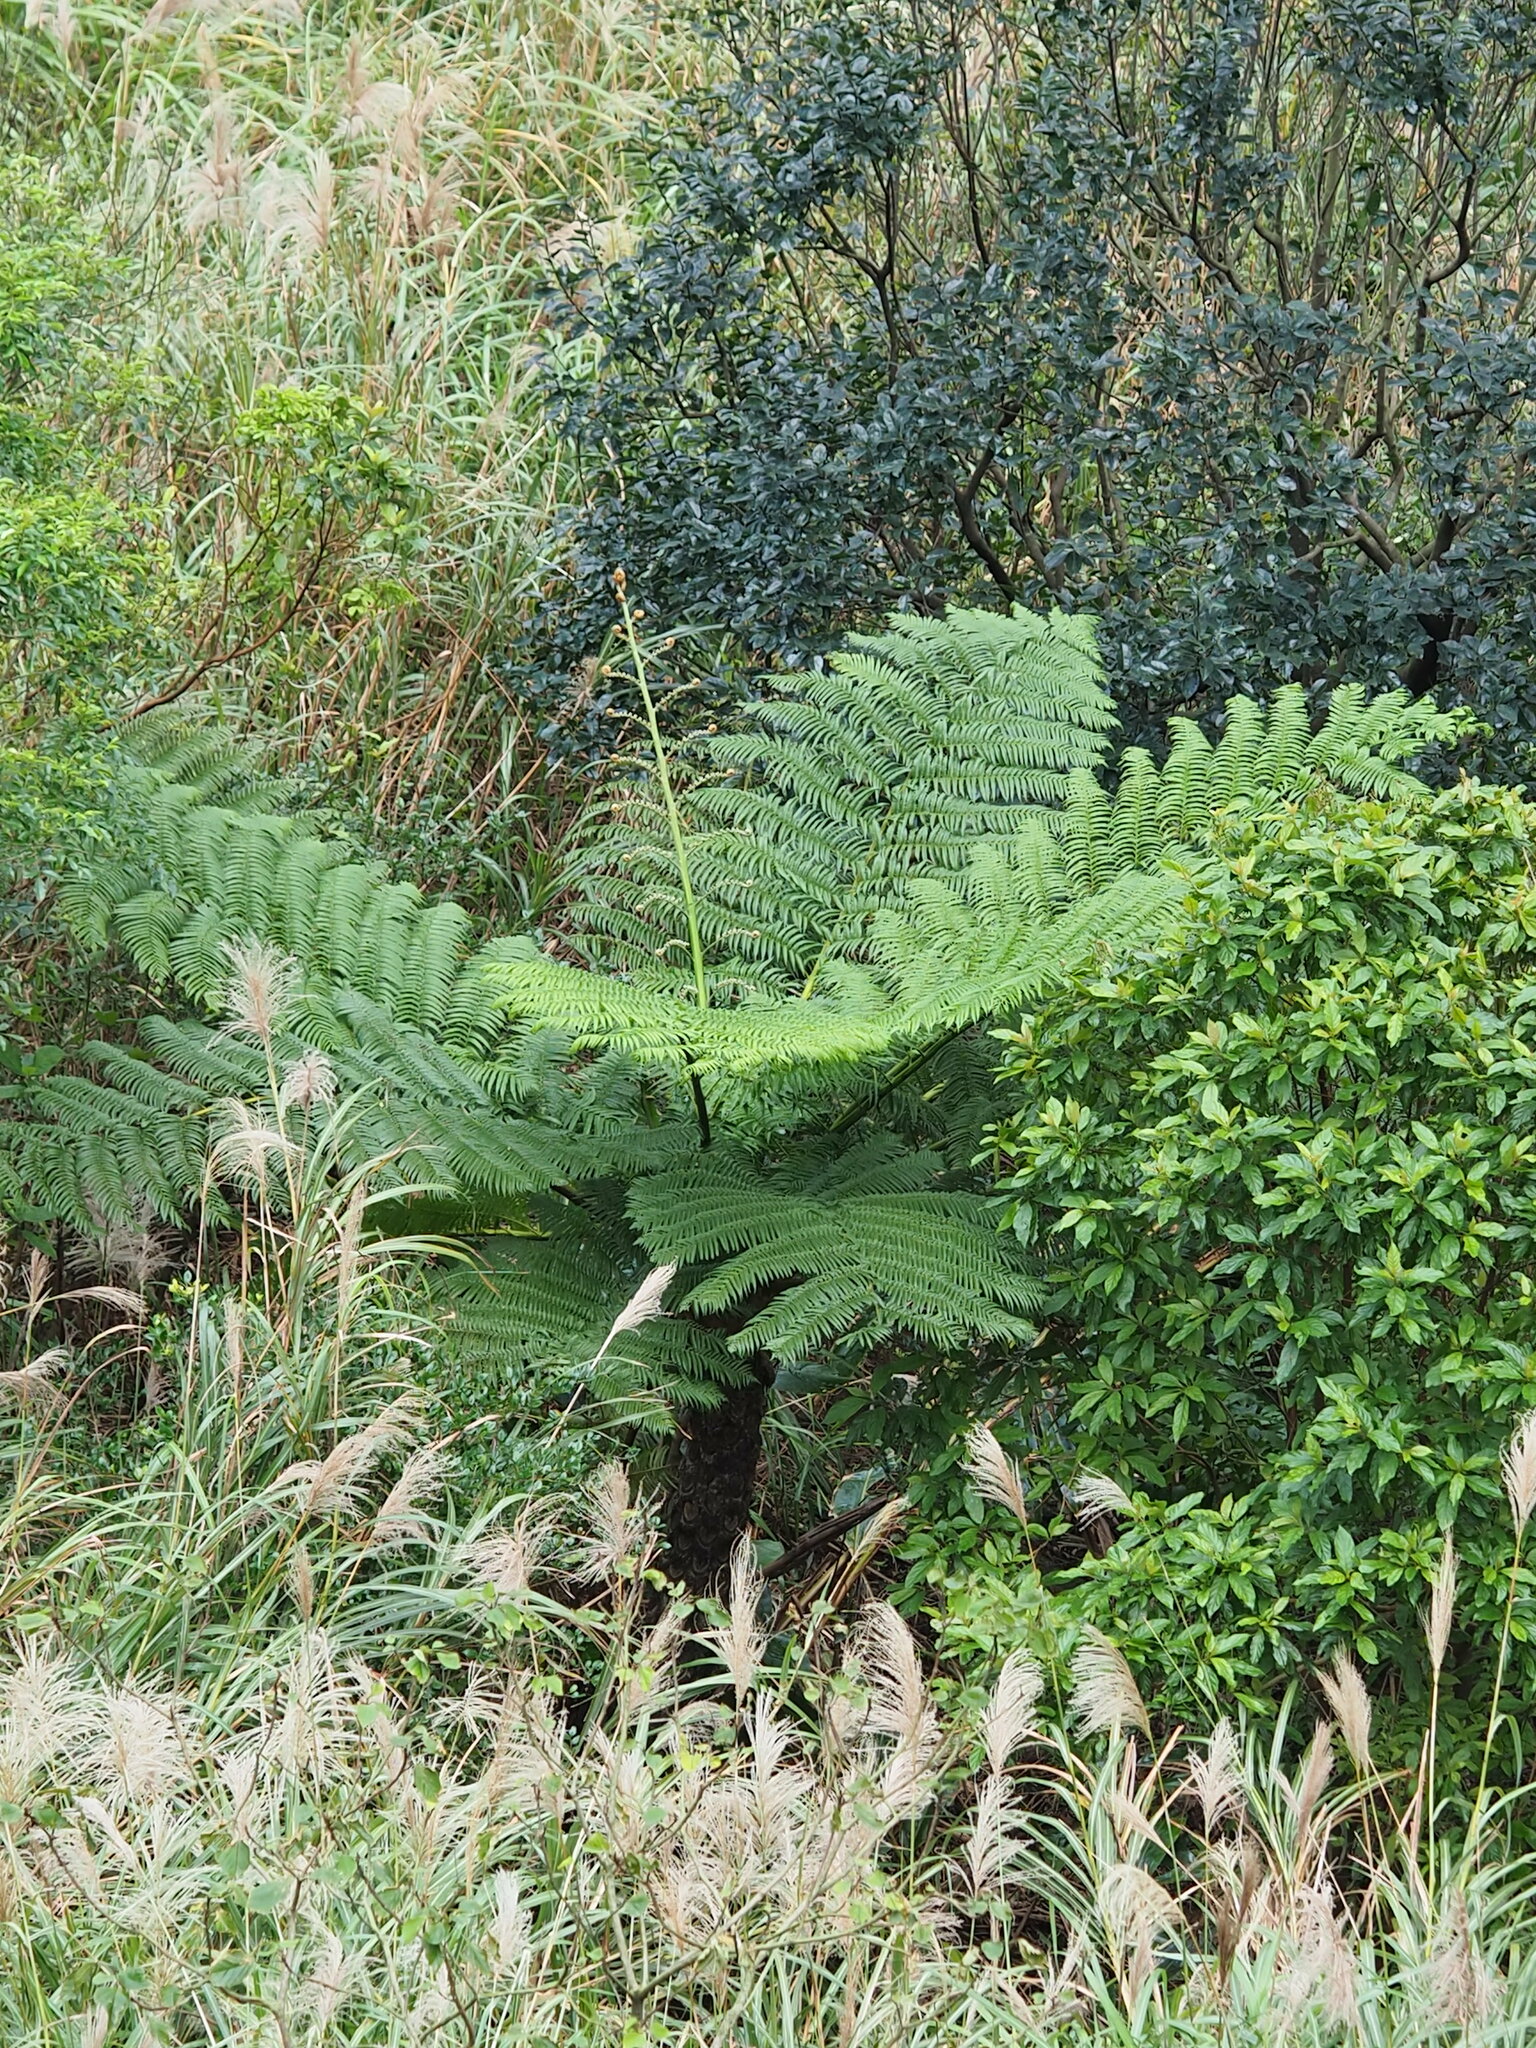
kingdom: Plantae
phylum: Tracheophyta
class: Polypodiopsida
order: Cyatheales
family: Cyatheaceae
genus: Alsophila
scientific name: Alsophila lepifera
